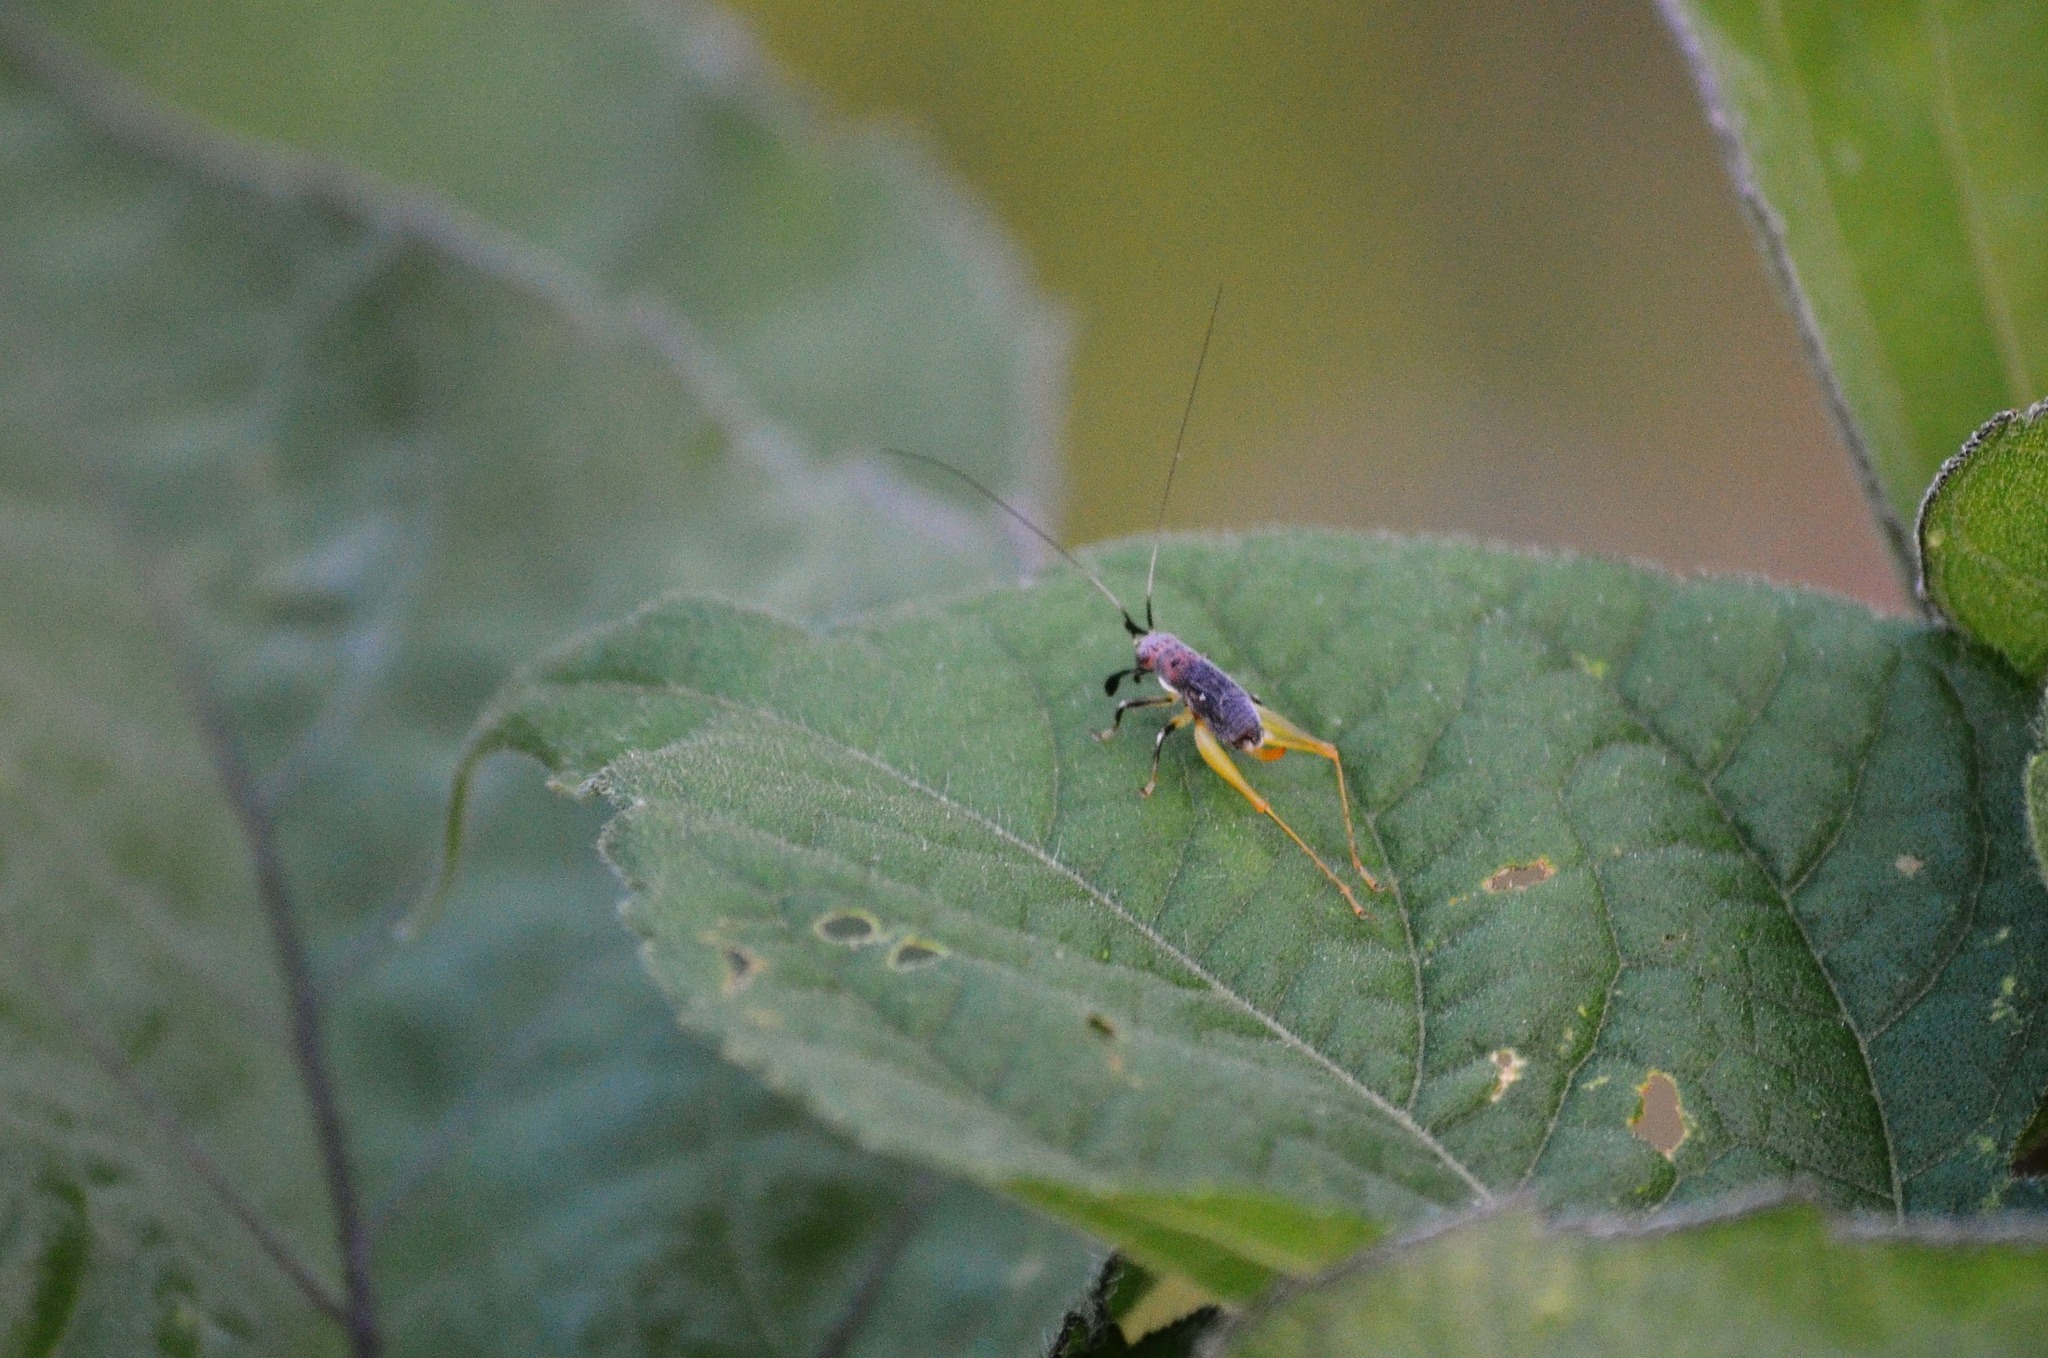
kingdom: Animalia
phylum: Arthropoda
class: Insecta
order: Orthoptera
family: Trigonidiidae
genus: Phyllopalpus
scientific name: Phyllopalpus pulchellus
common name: Handsome trig
